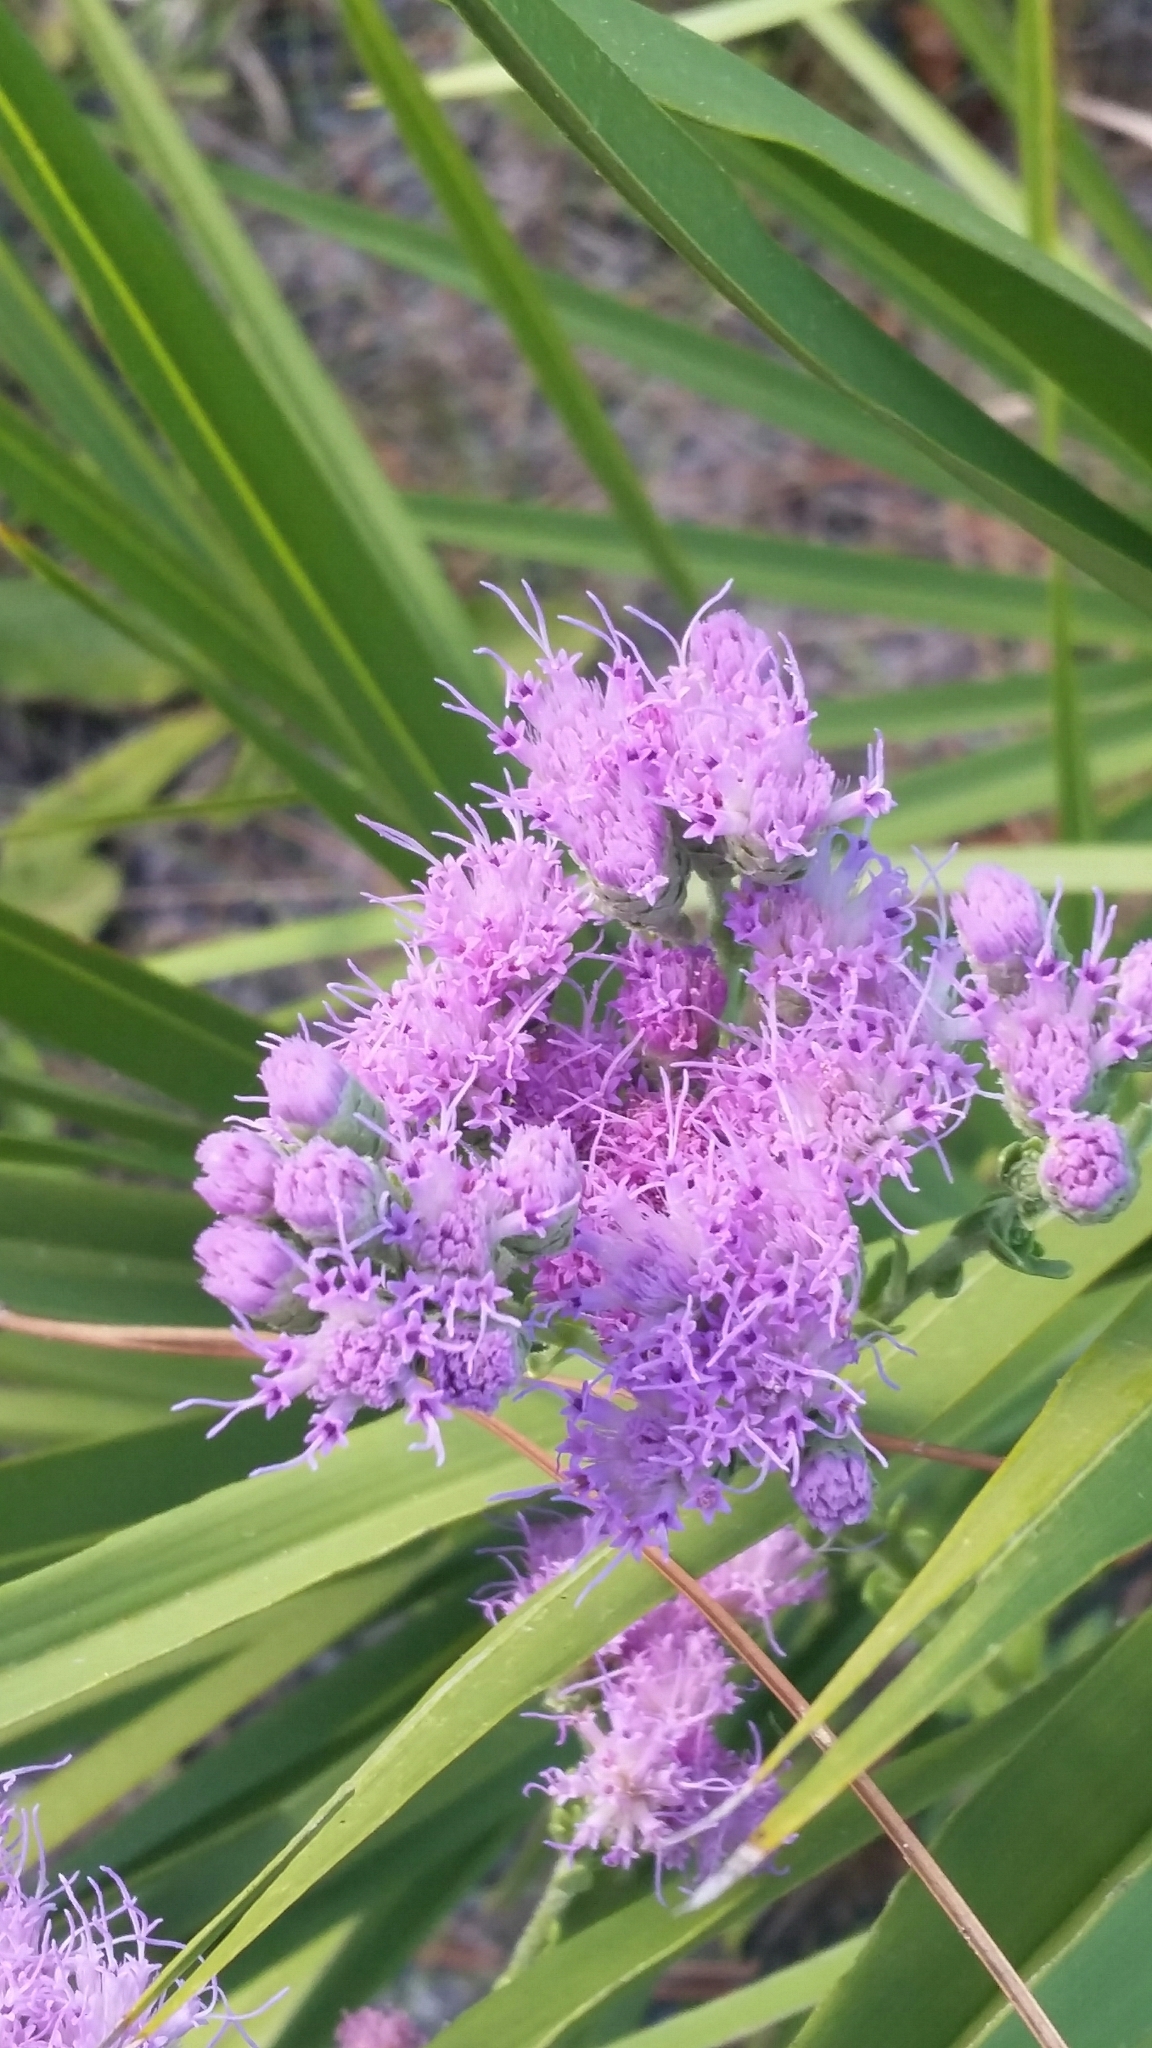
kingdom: Plantae
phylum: Tracheophyta
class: Magnoliopsida
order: Asterales
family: Asteraceae
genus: Carphephorus
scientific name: Carphephorus corymbosus
